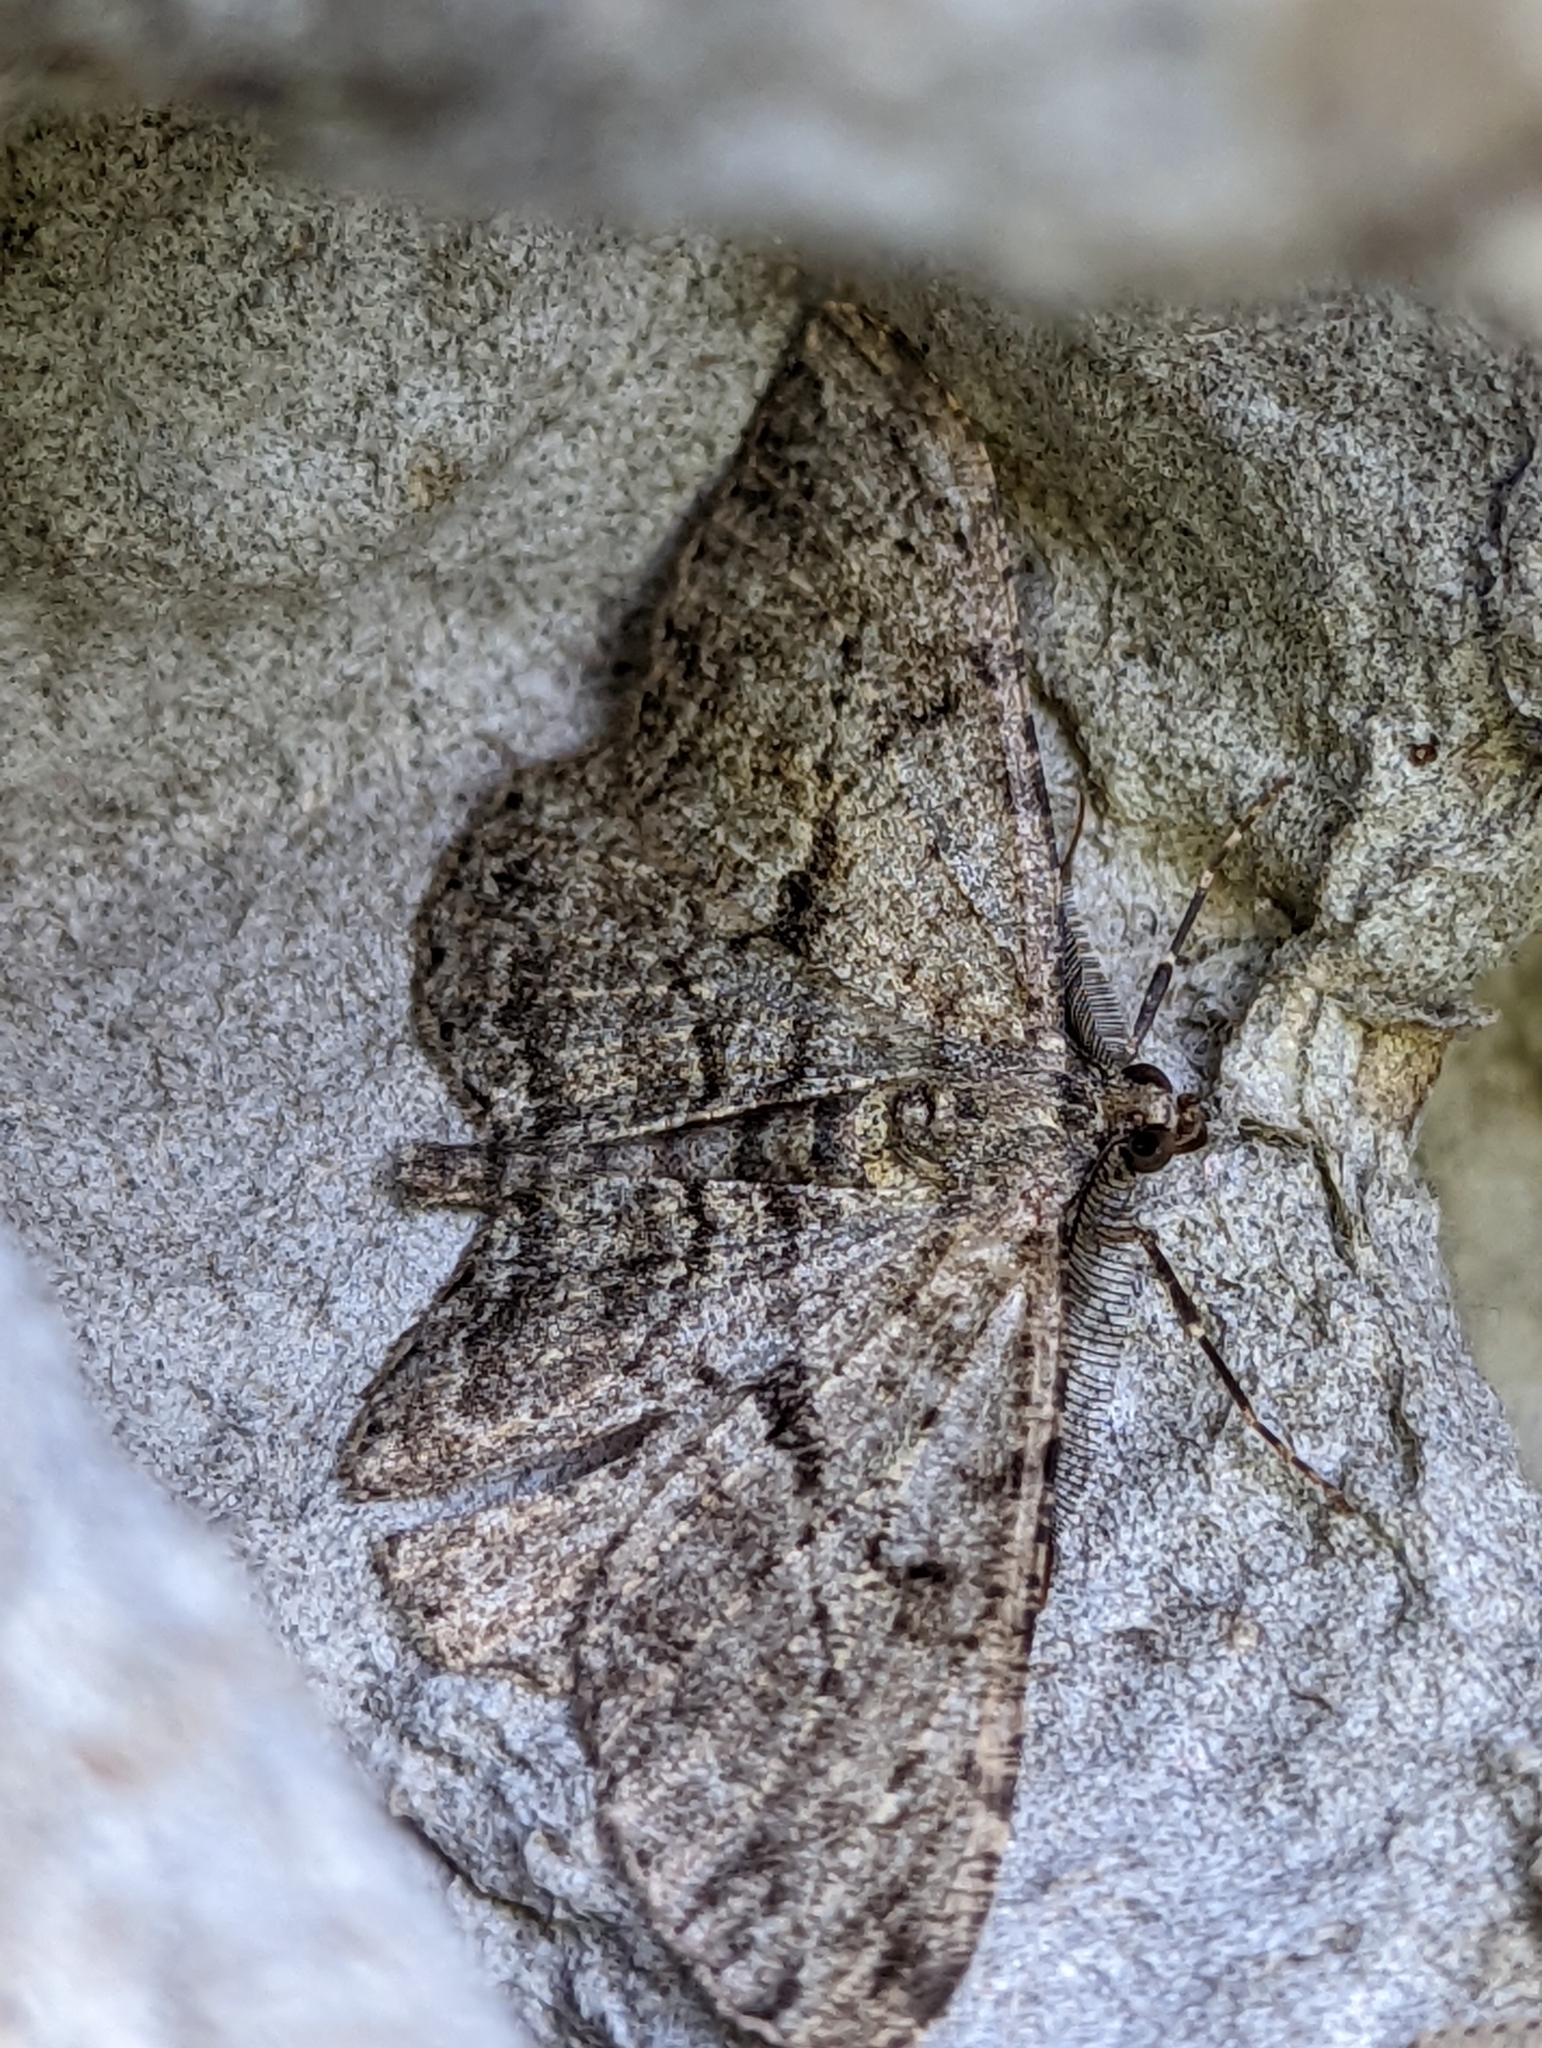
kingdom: Animalia
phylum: Arthropoda
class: Insecta
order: Lepidoptera
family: Geometridae
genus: Peribatodes
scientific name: Peribatodes rhomboidaria
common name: Willow beauty
